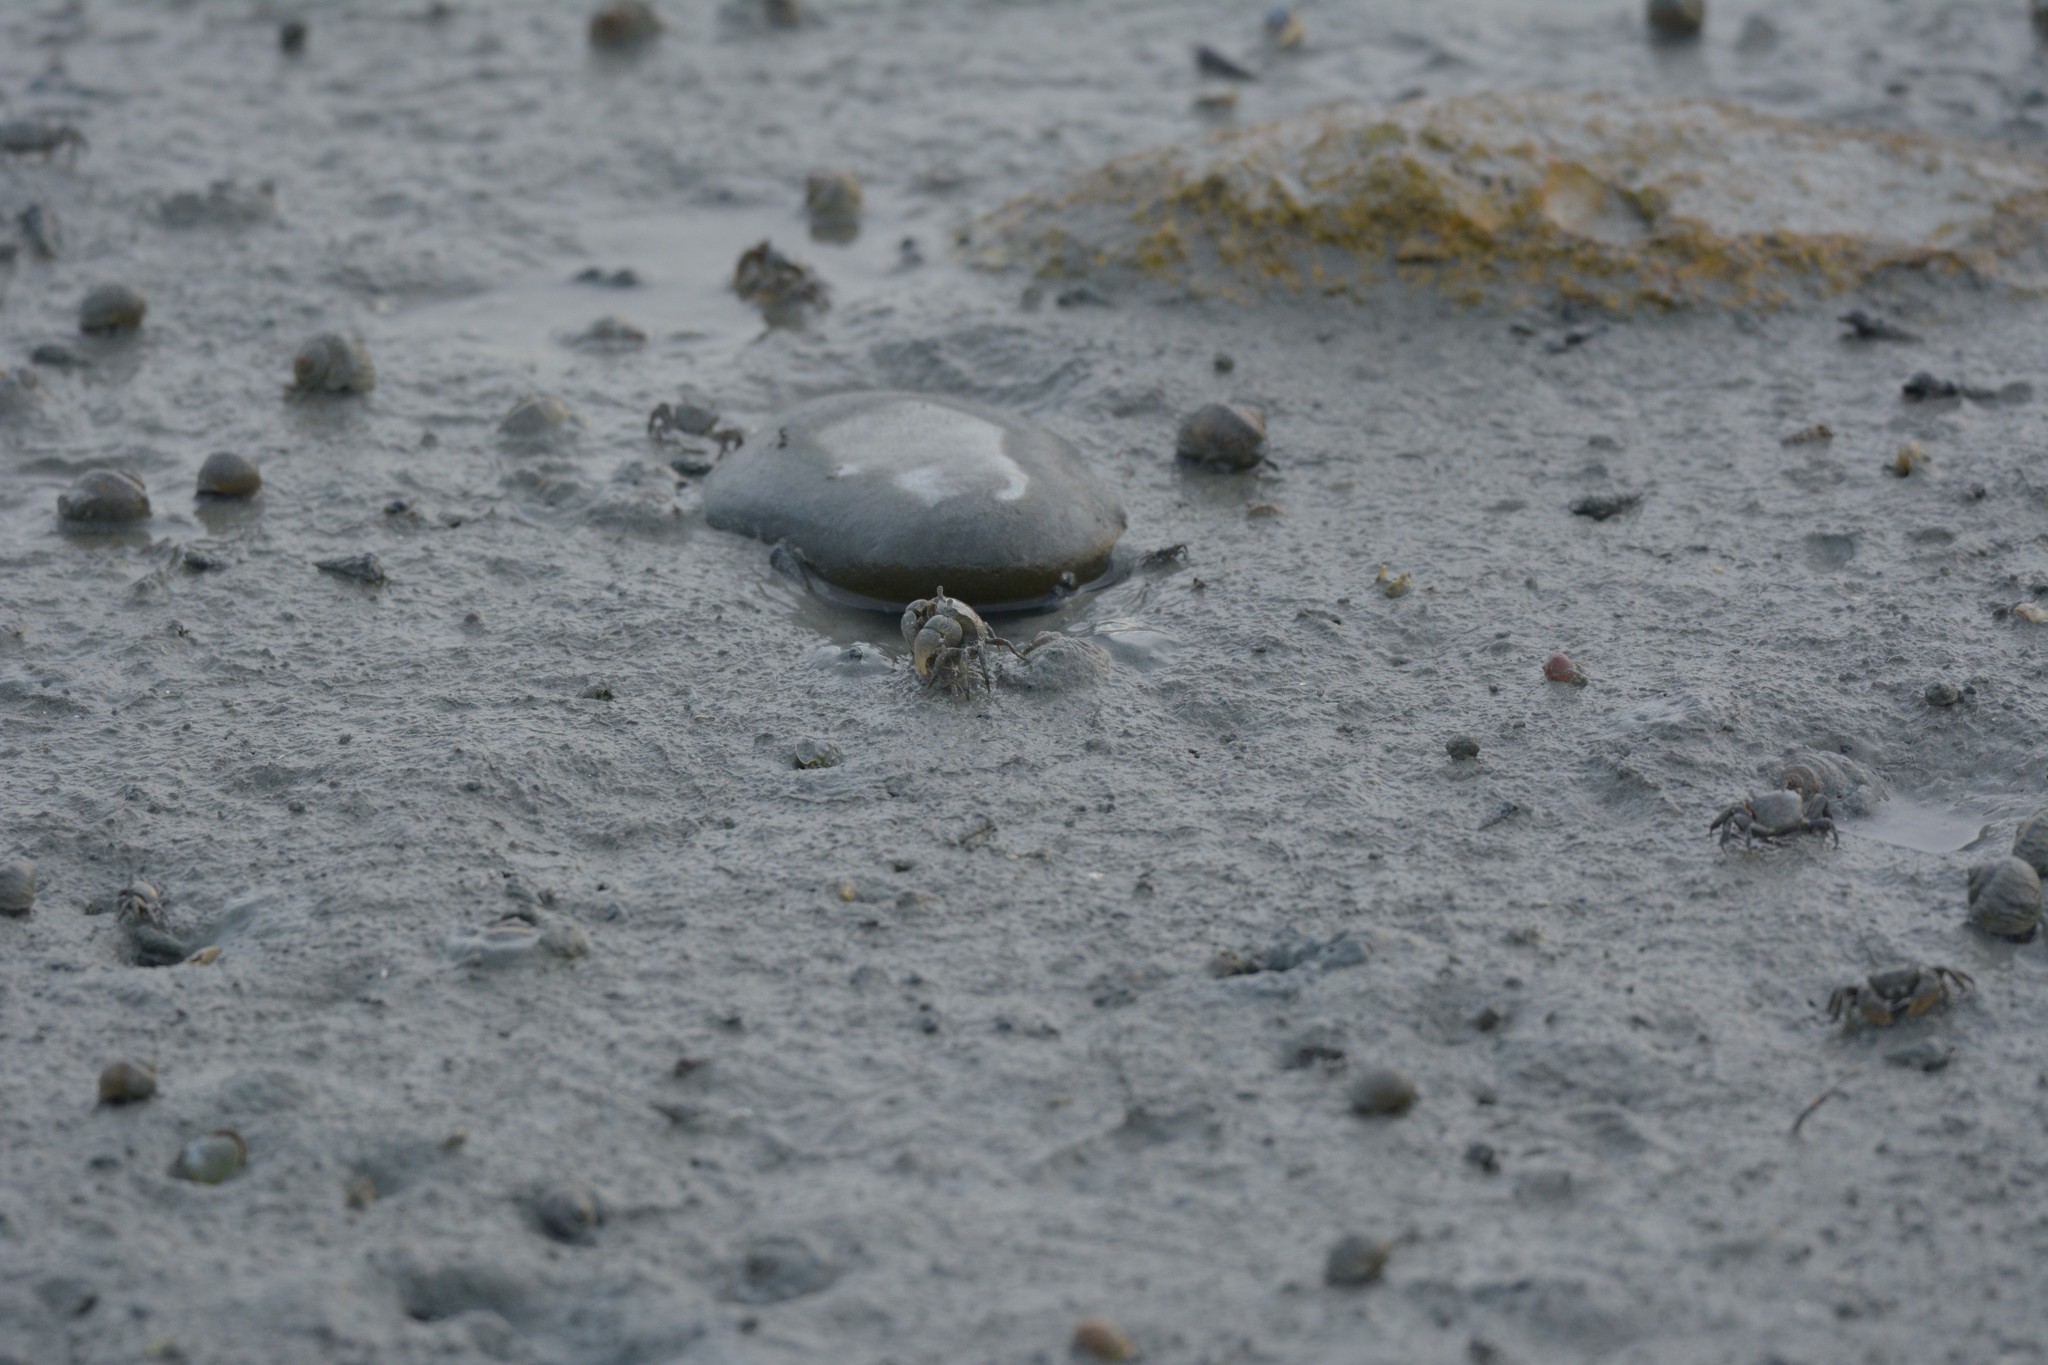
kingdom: Animalia
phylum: Arthropoda
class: Malacostraca
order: Decapoda
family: Varunidae
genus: Austrohelice
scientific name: Austrohelice crassa
